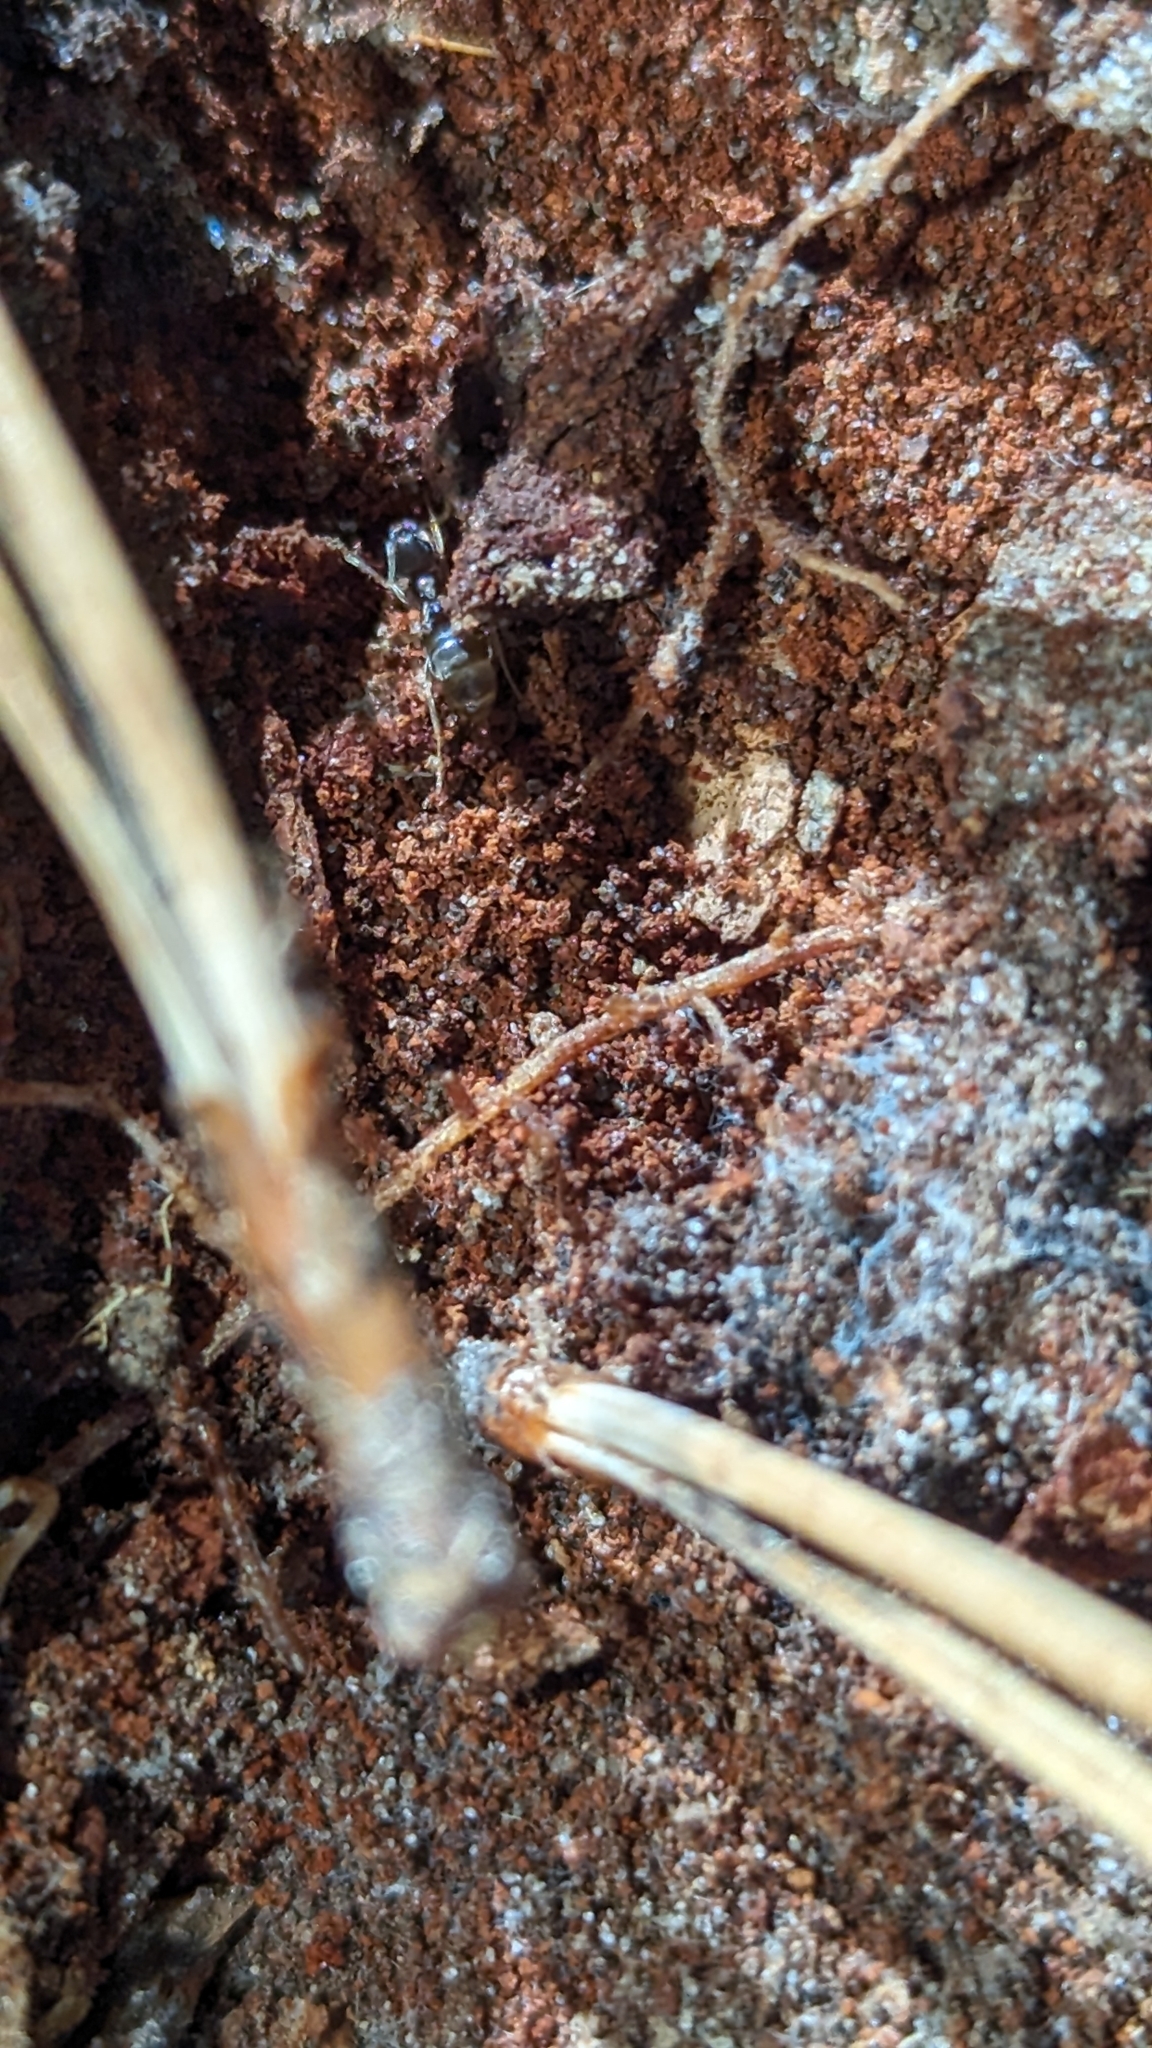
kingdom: Animalia
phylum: Arthropoda
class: Insecta
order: Hymenoptera
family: Formicidae
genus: Lasius
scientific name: Lasius americanus
